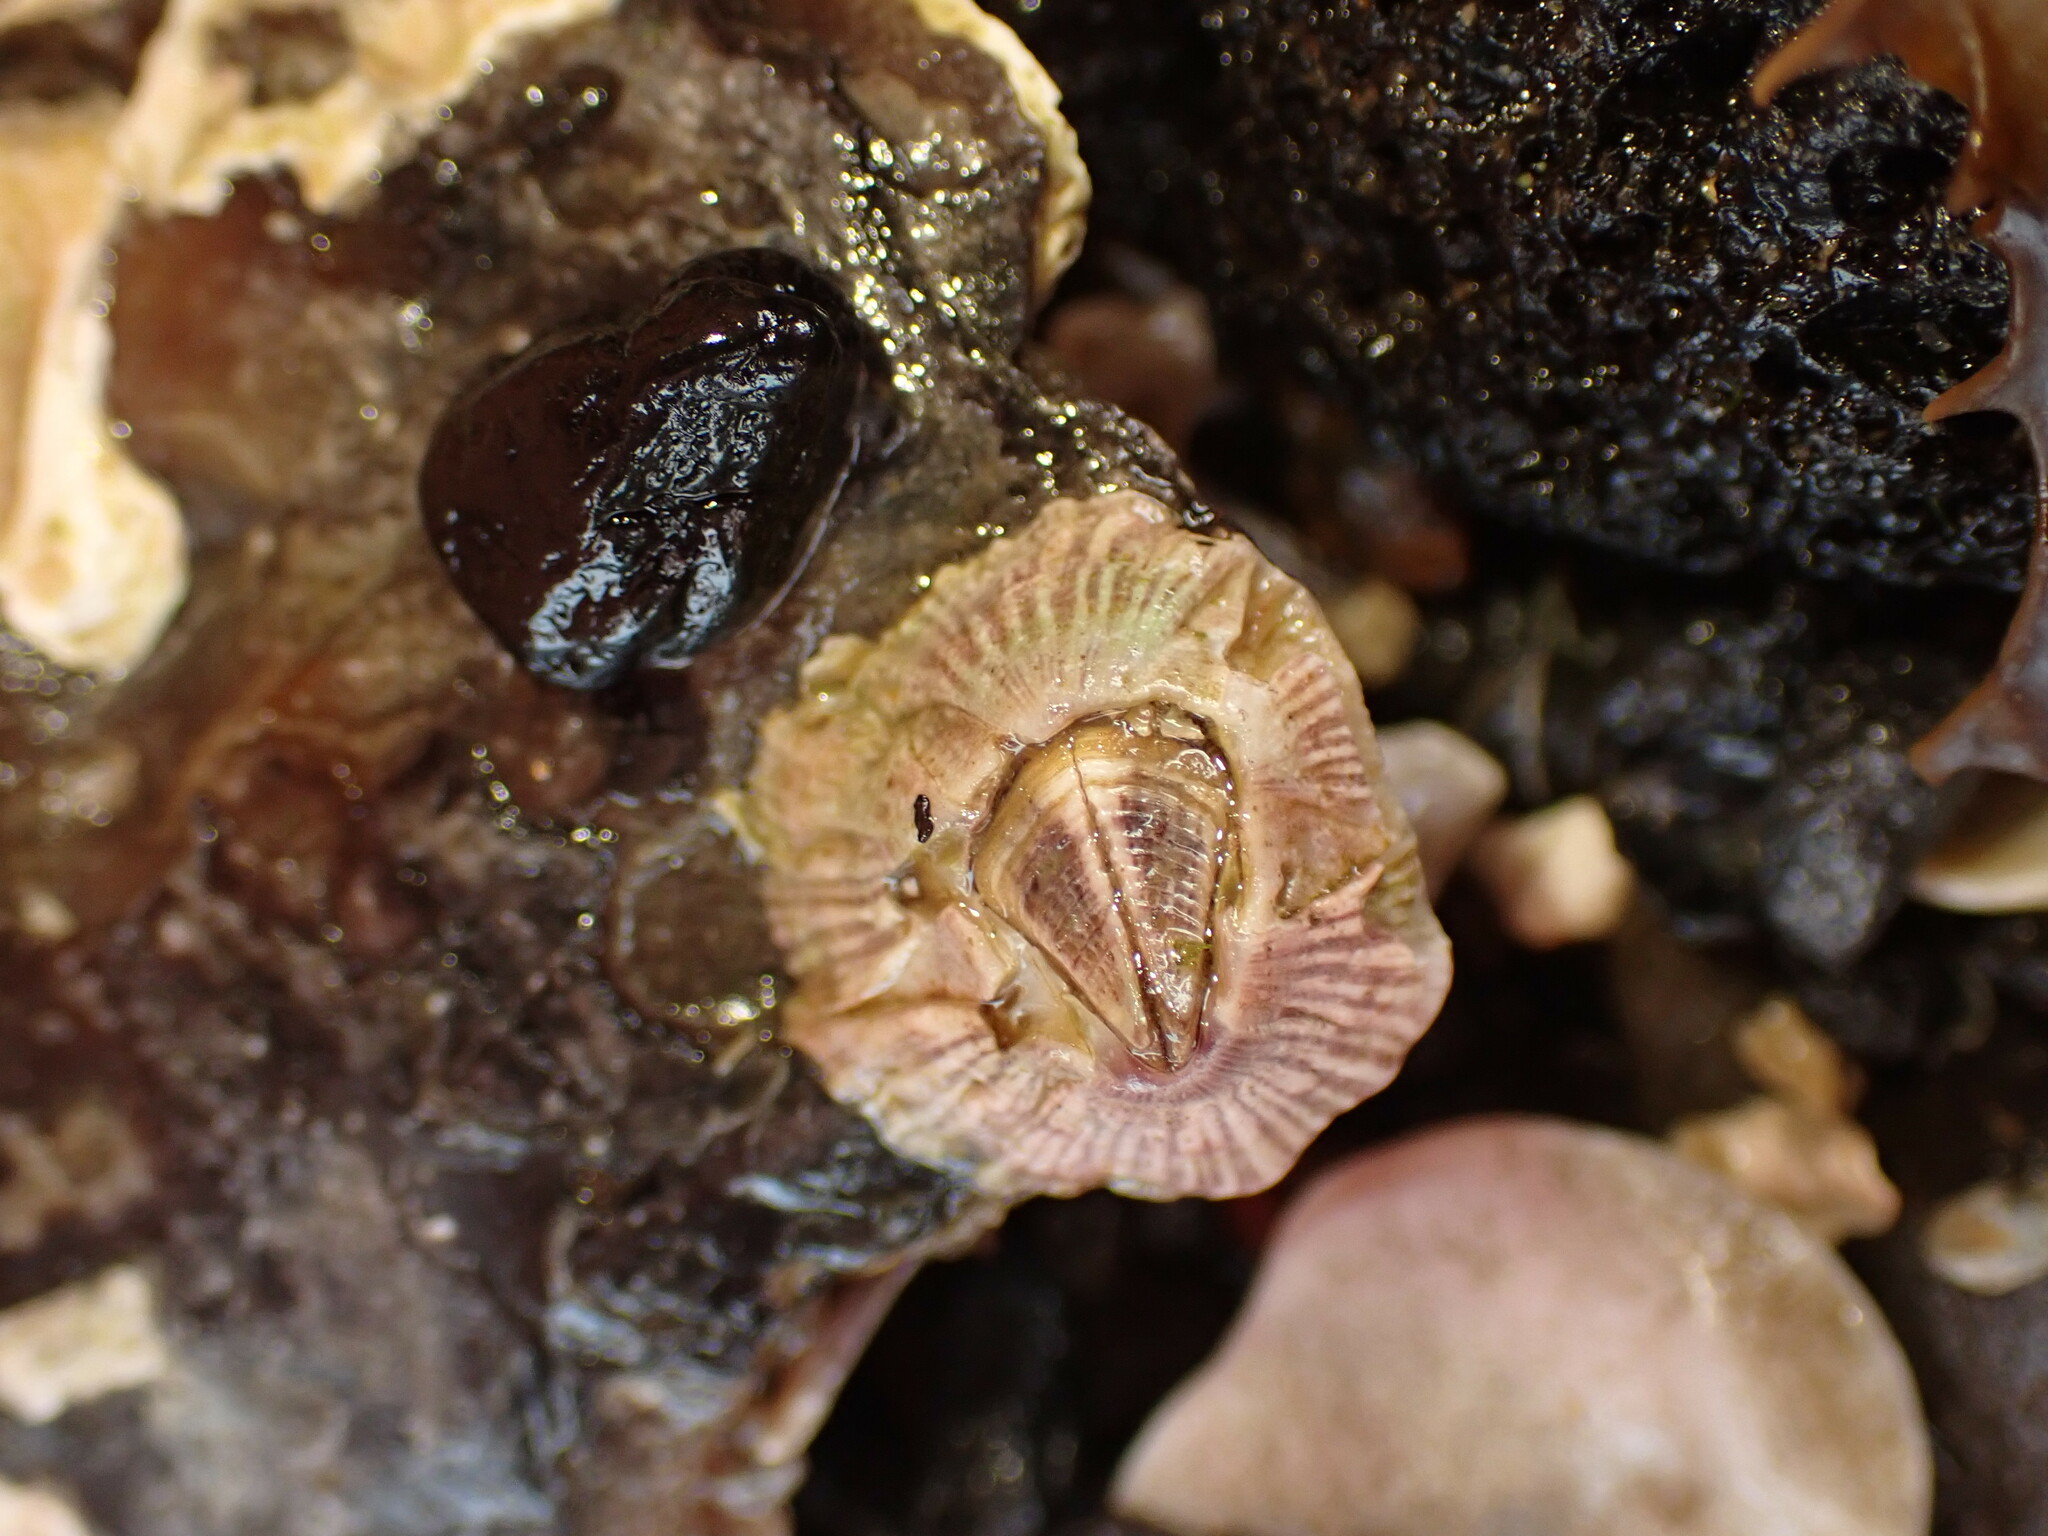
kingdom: Animalia
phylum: Arthropoda
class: Maxillopoda
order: Sessilia
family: Balanidae
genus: Balanus
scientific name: Balanus trigonus
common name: Triangle barnacle
